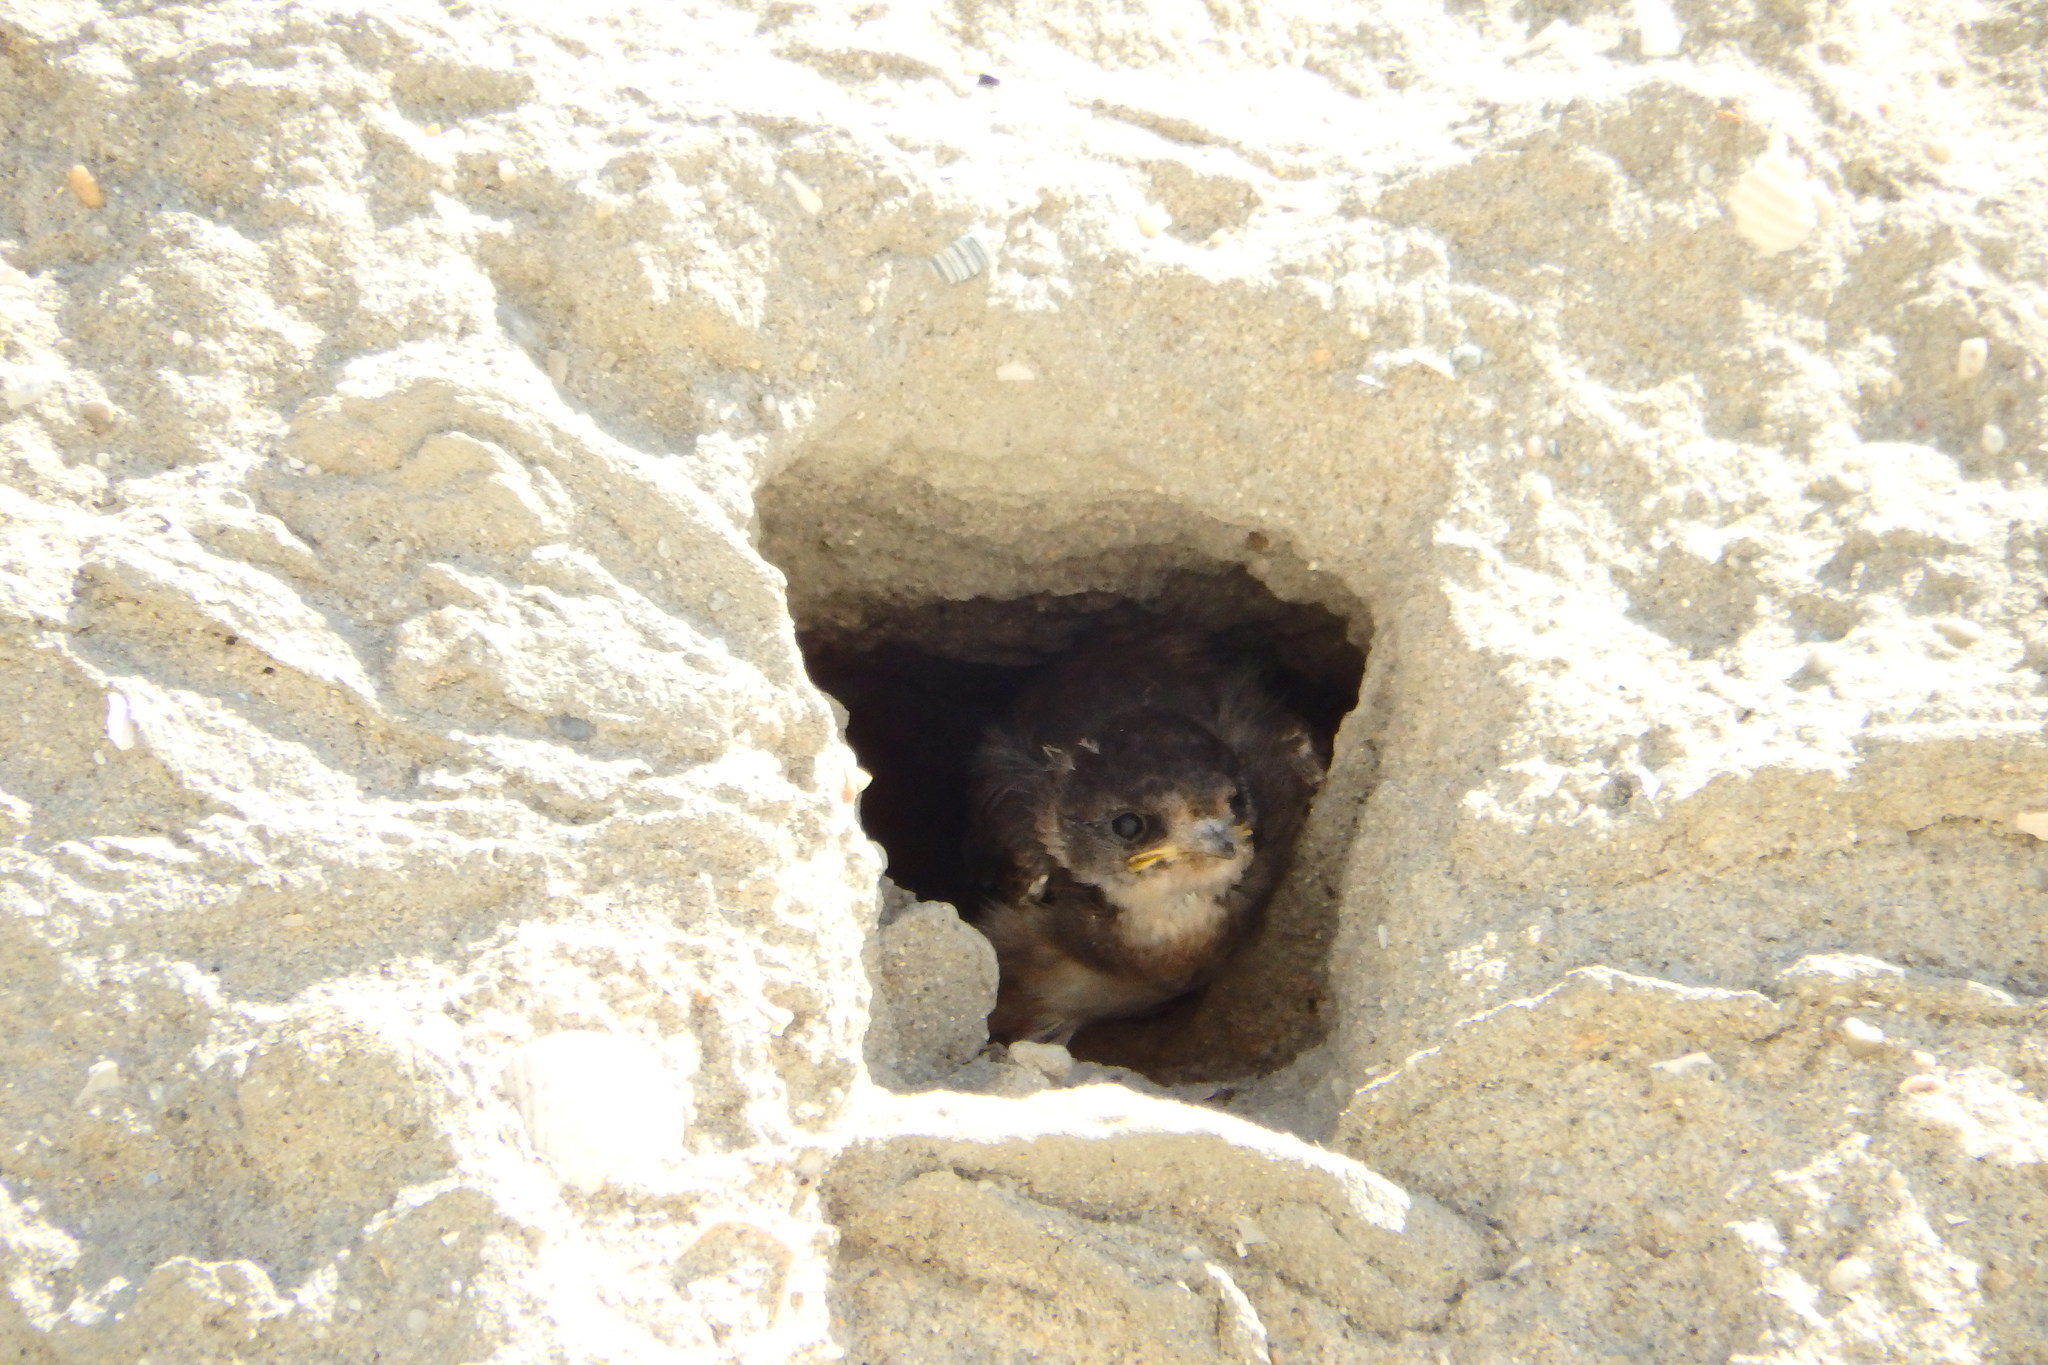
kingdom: Animalia
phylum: Chordata
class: Aves
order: Passeriformes
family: Hirundinidae
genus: Riparia
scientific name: Riparia riparia
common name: Sand martin
